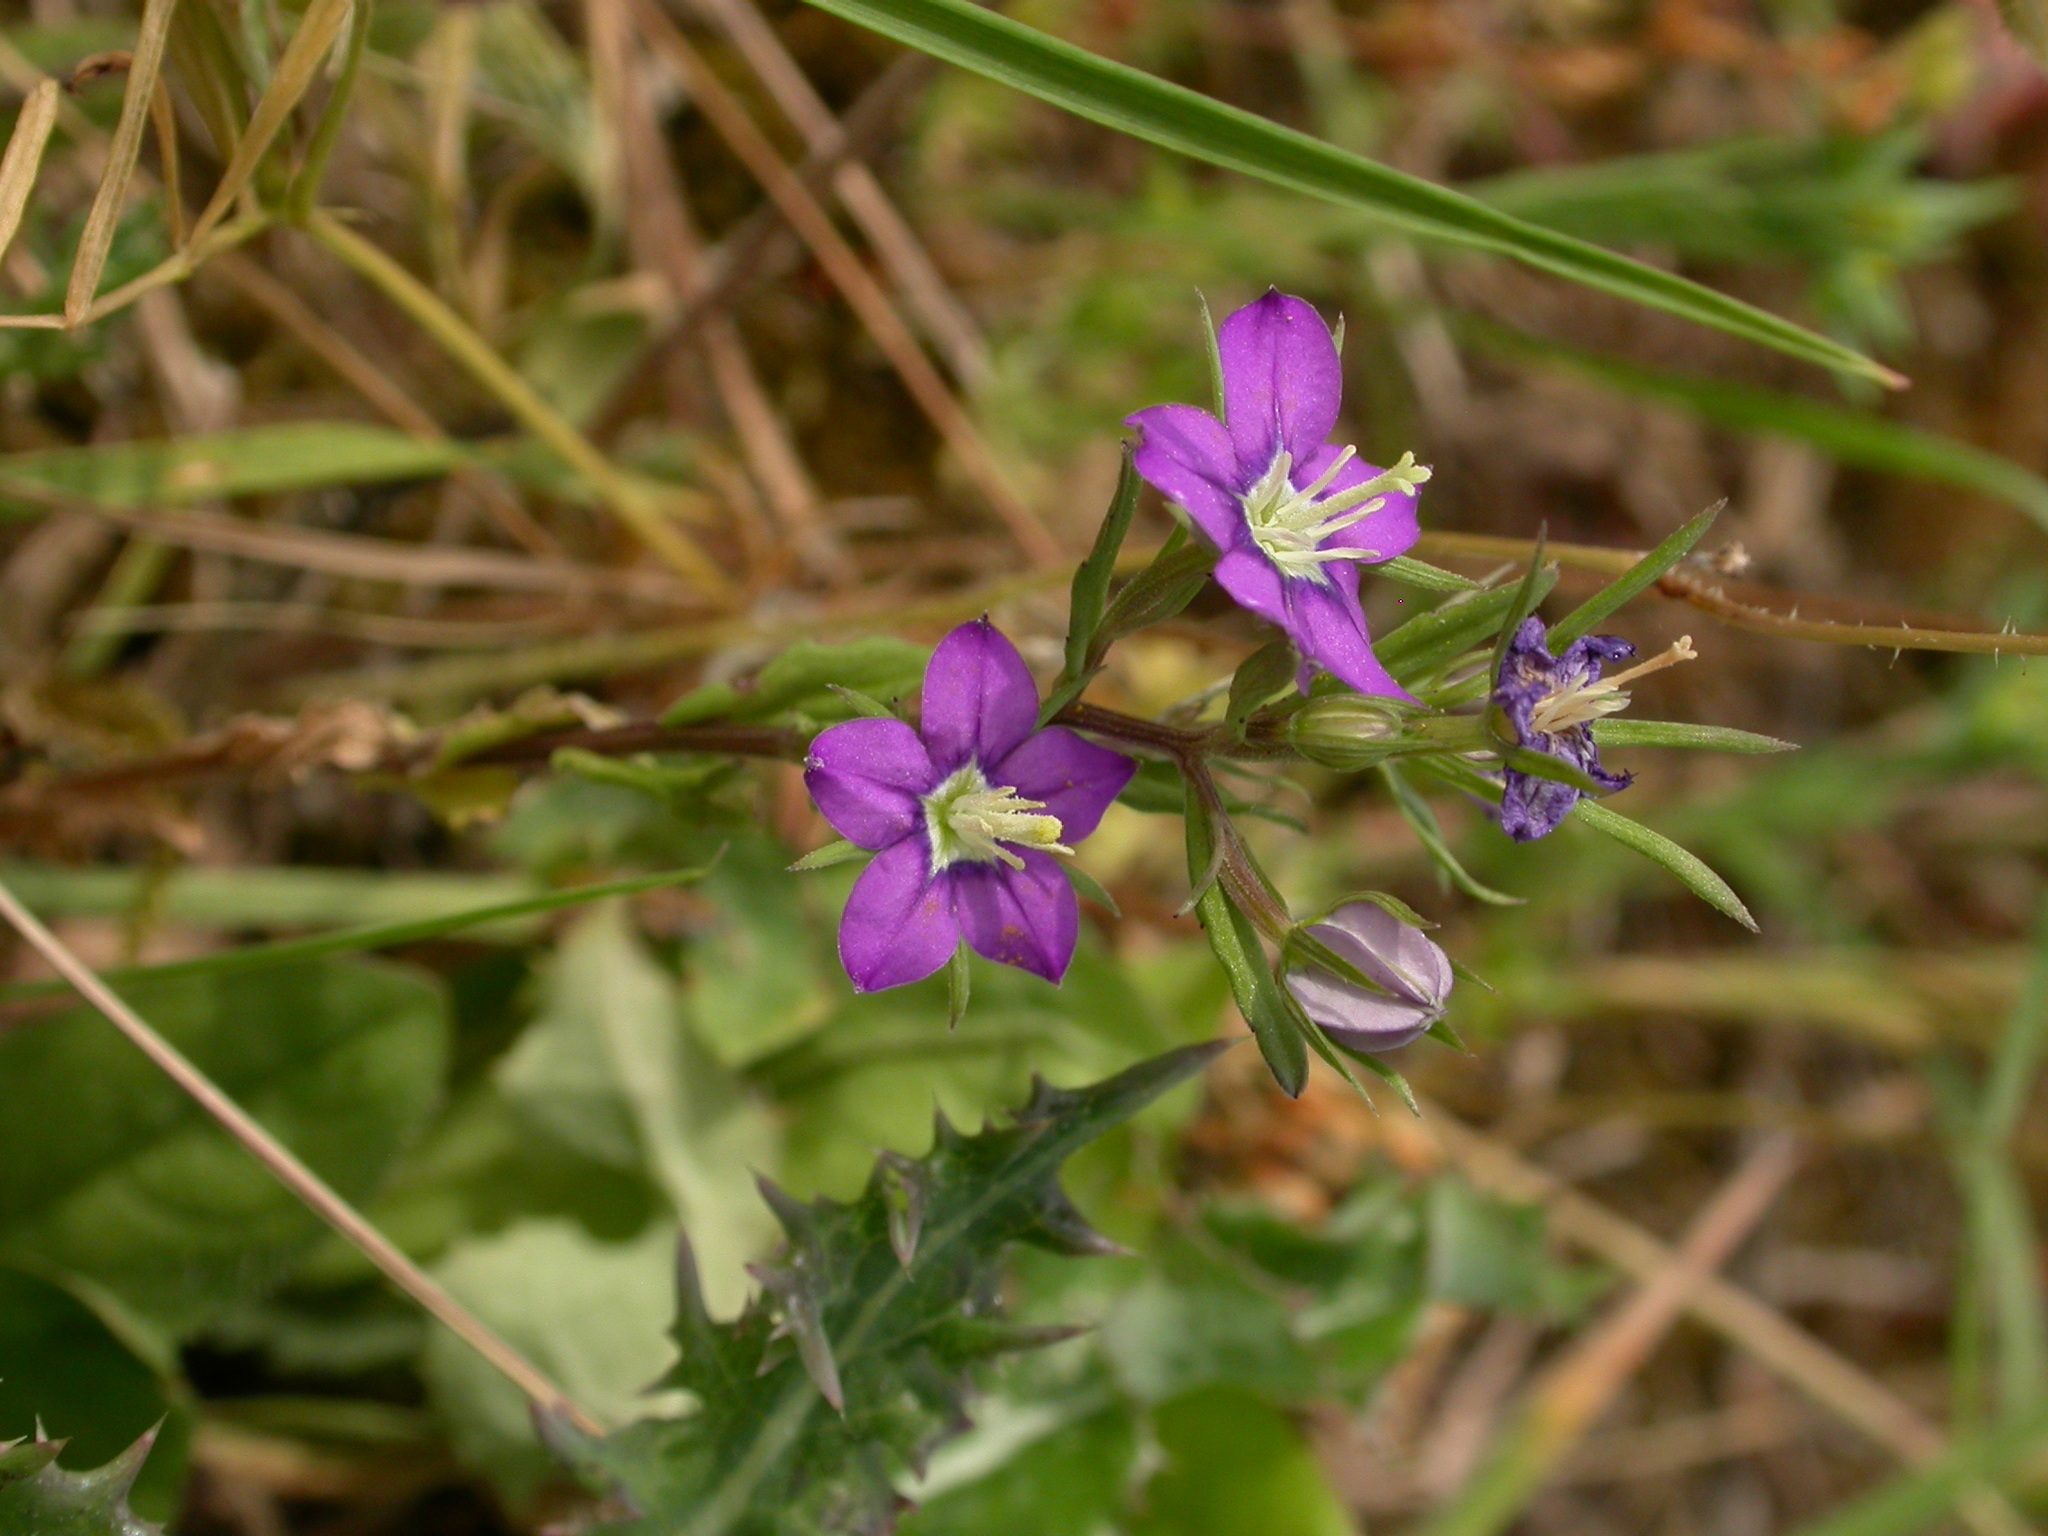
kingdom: Plantae
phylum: Tracheophyta
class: Magnoliopsida
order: Asterales
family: Campanulaceae
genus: Legousia
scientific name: Legousia speculum-veneris
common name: Large venus's-looking-glass
